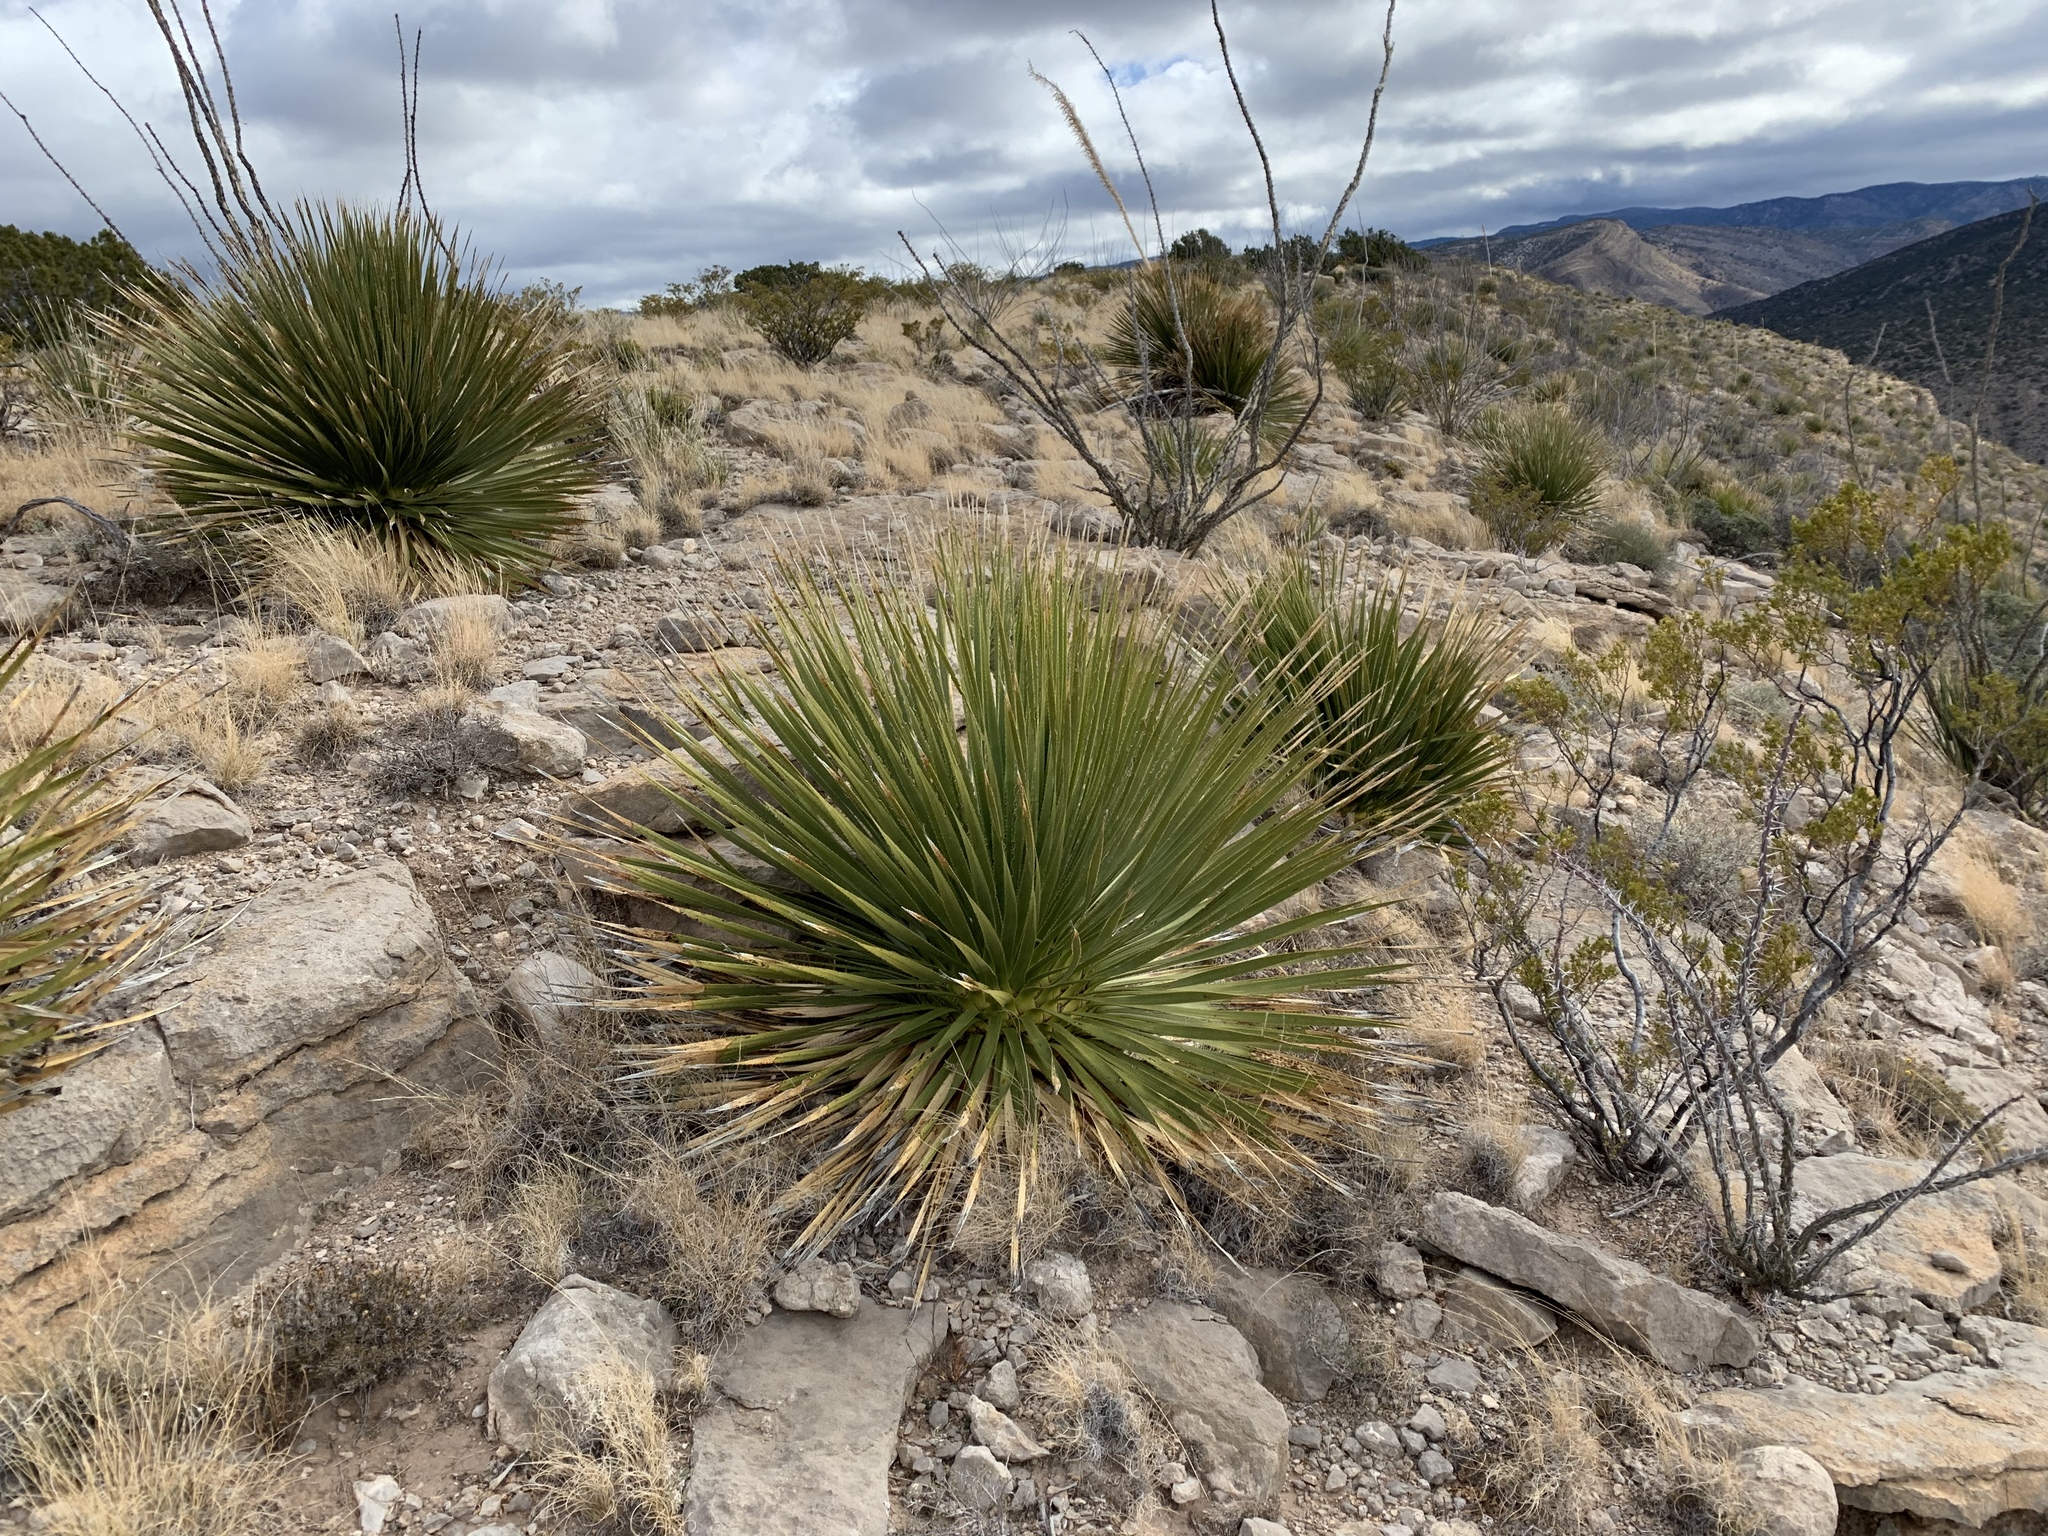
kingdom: Plantae
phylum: Tracheophyta
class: Liliopsida
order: Asparagales
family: Asparagaceae
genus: Dasylirion
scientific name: Dasylirion wheeleri
